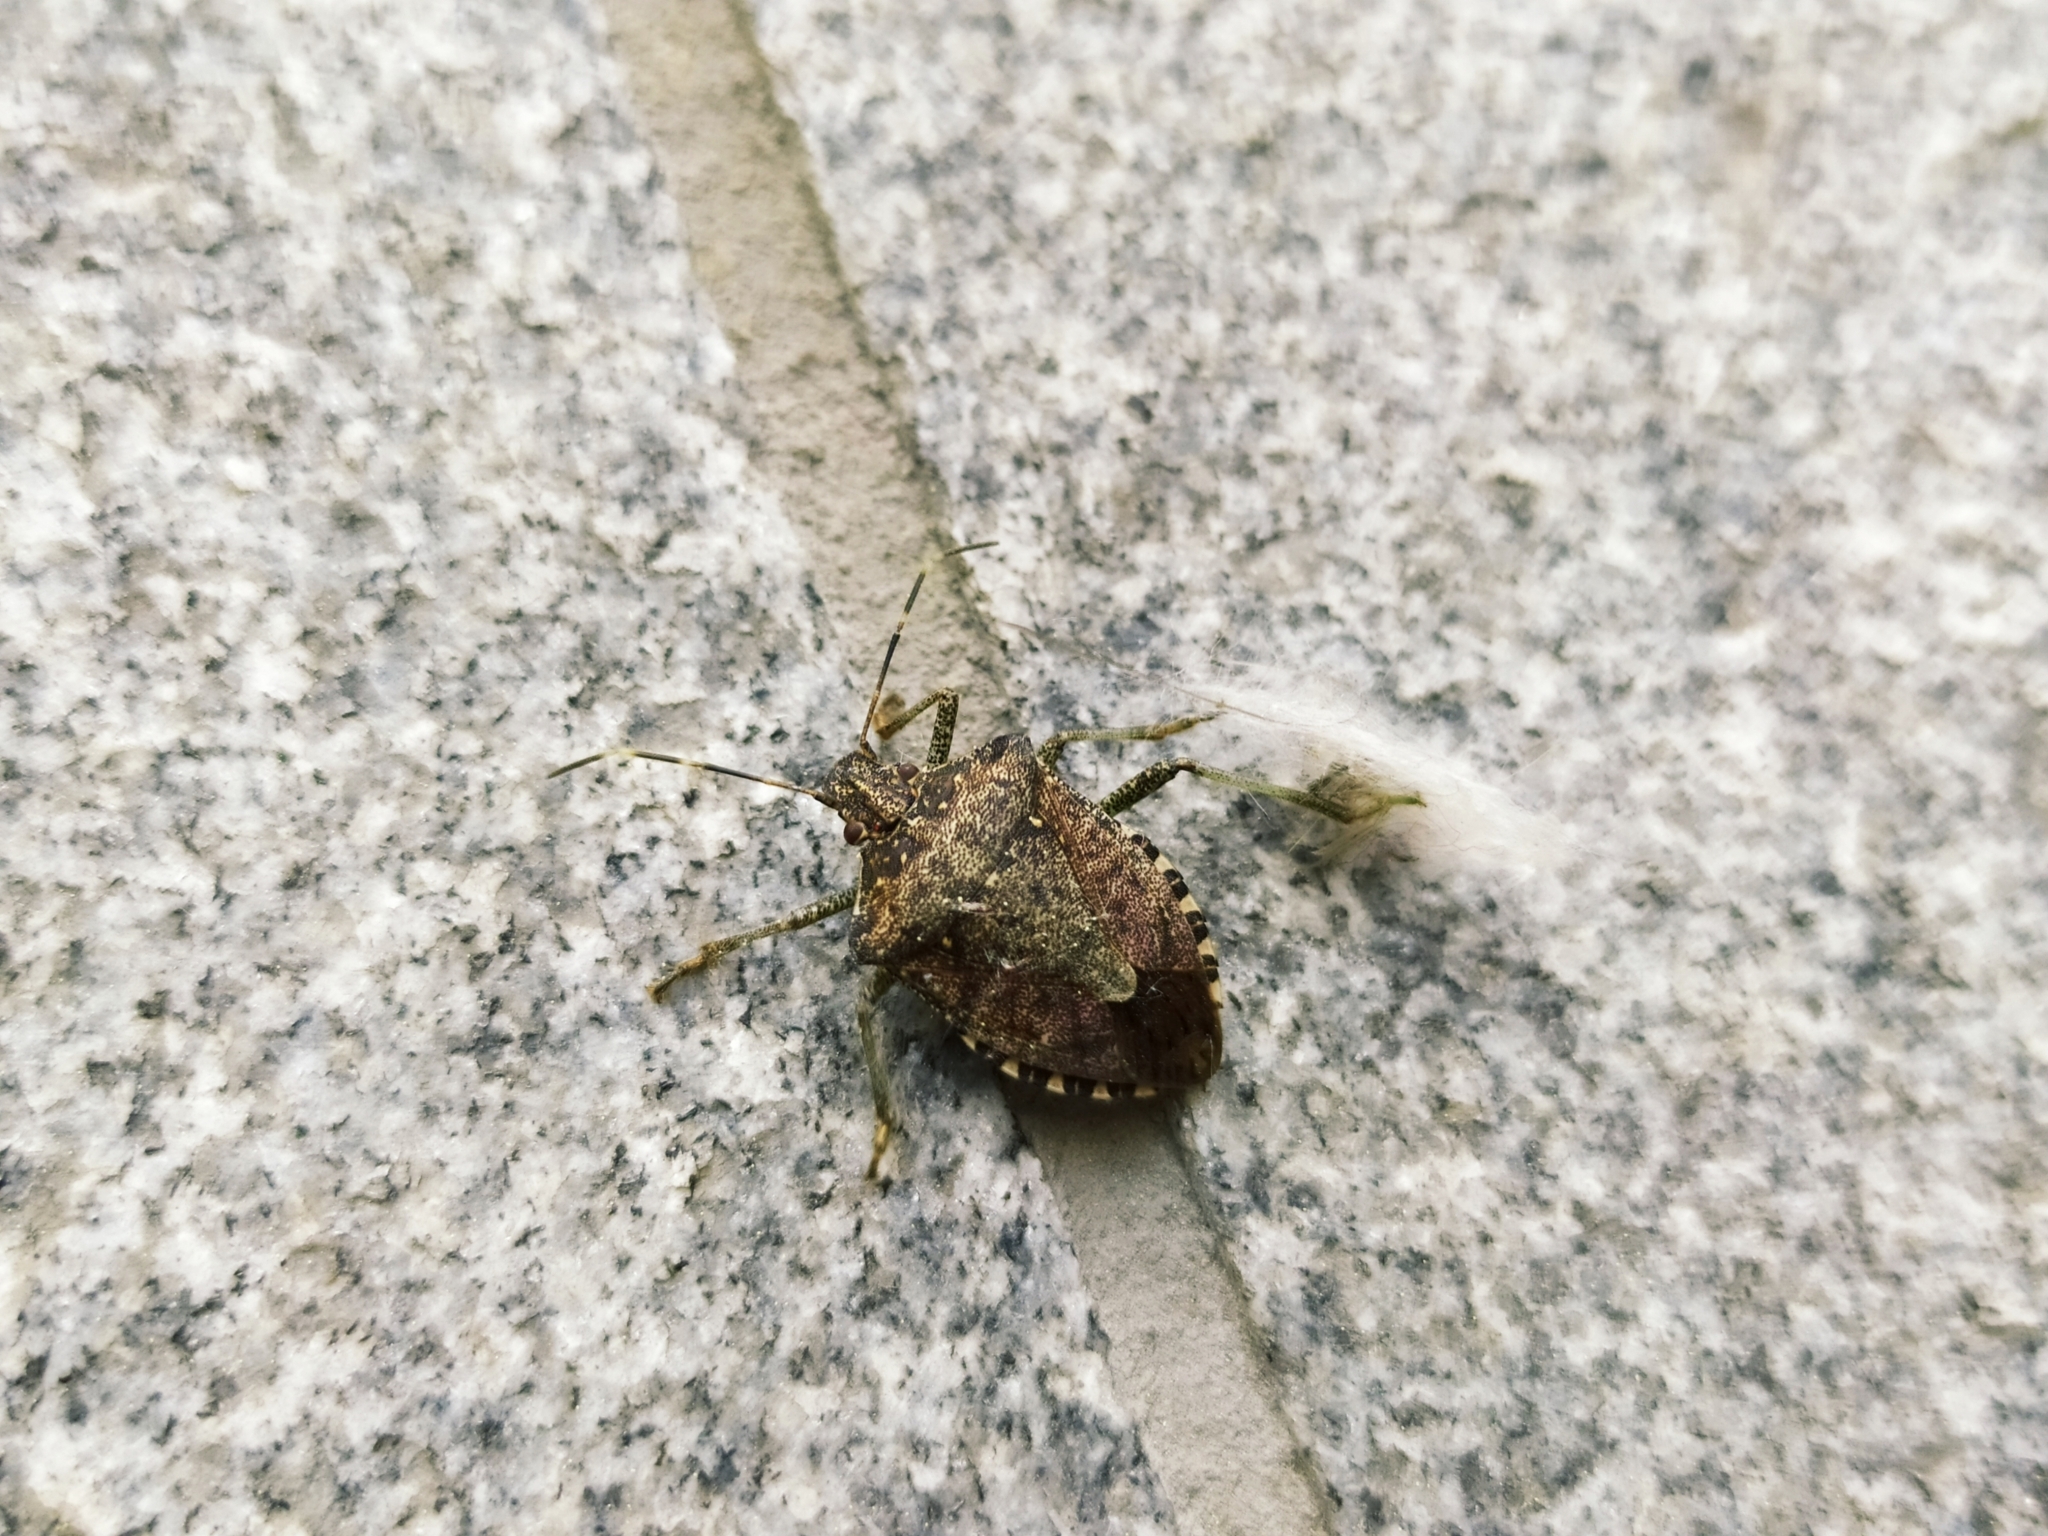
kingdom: Animalia
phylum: Arthropoda
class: Insecta
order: Hemiptera
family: Pentatomidae
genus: Halyomorpha
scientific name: Halyomorpha halys
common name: Brown marmorated stink bug
